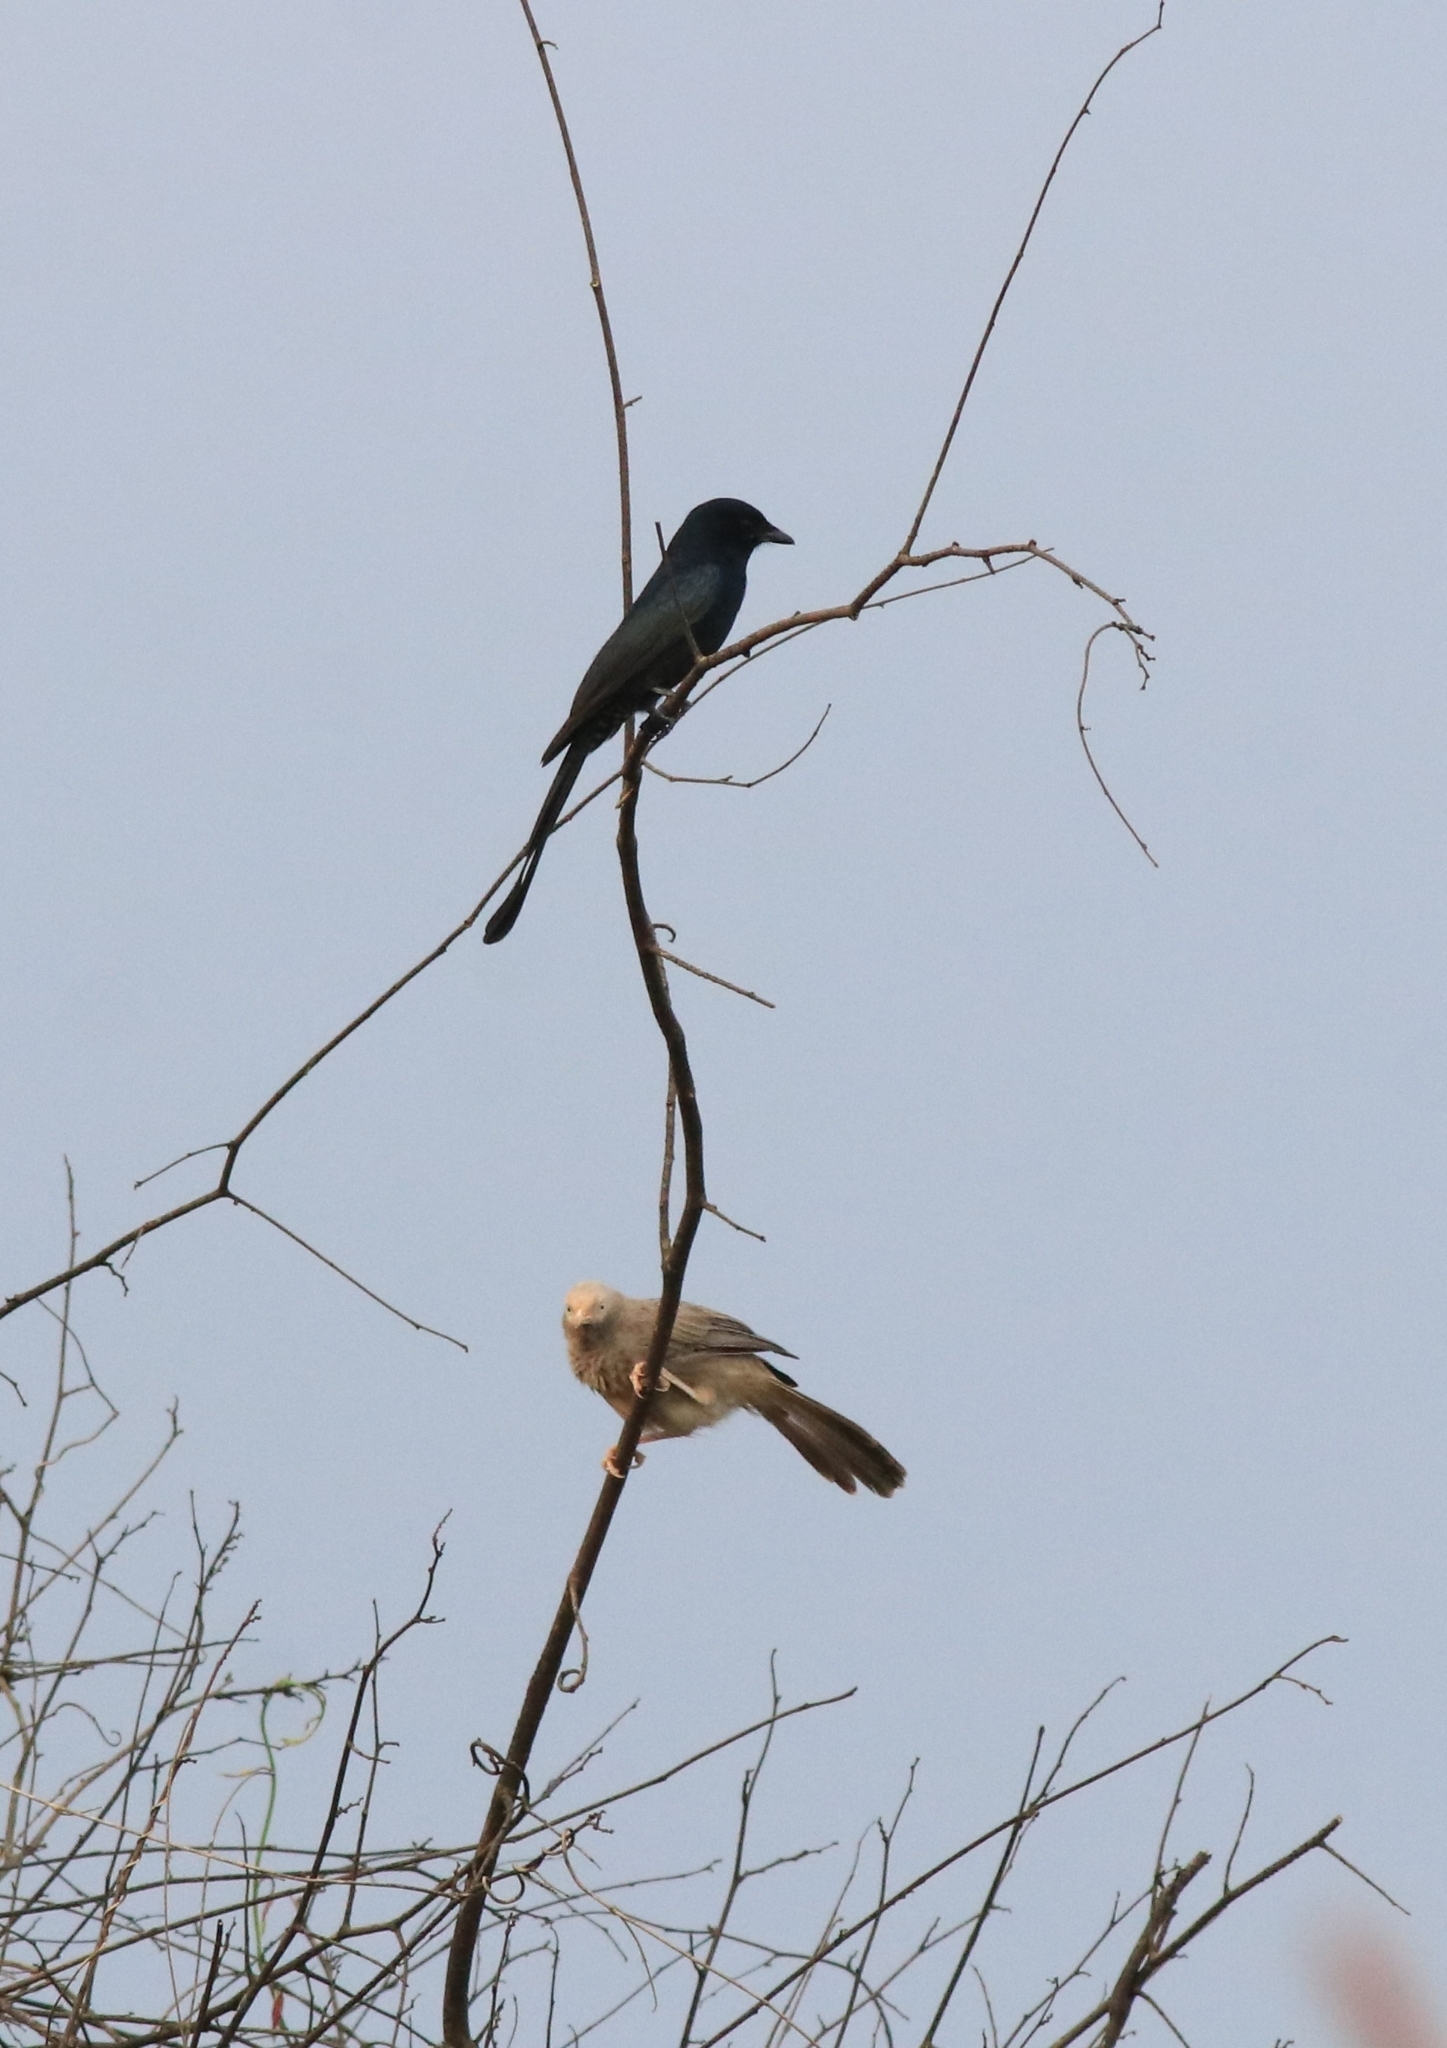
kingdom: Animalia
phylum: Chordata
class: Aves
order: Passeriformes
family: Dicruridae
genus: Dicrurus
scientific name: Dicrurus macrocercus
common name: Black drongo
